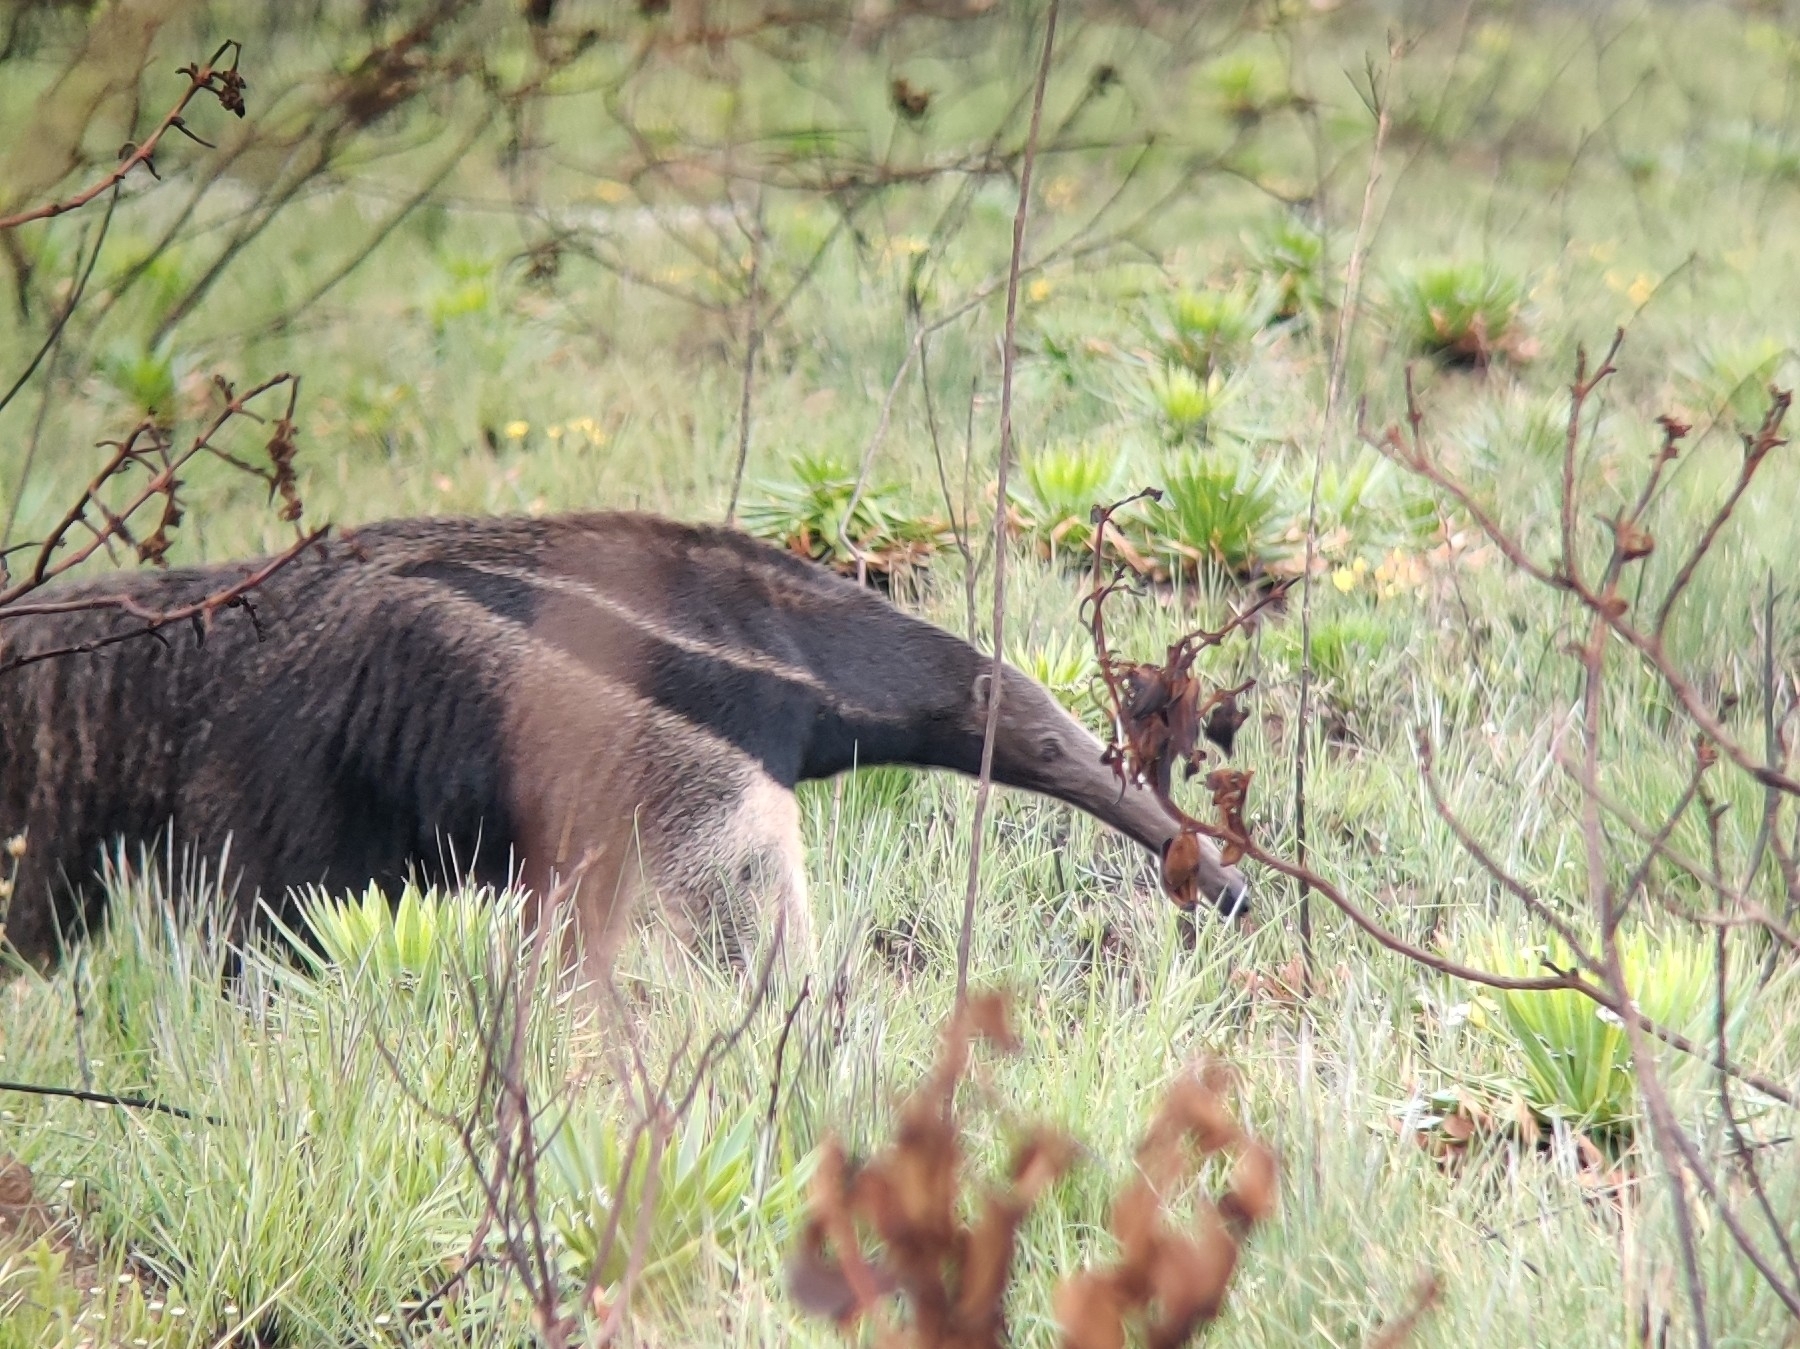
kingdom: Animalia
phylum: Chordata
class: Mammalia
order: Pilosa
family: Myrmecophagidae
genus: Myrmecophaga
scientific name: Myrmecophaga tridactyla
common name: Giant anteater
